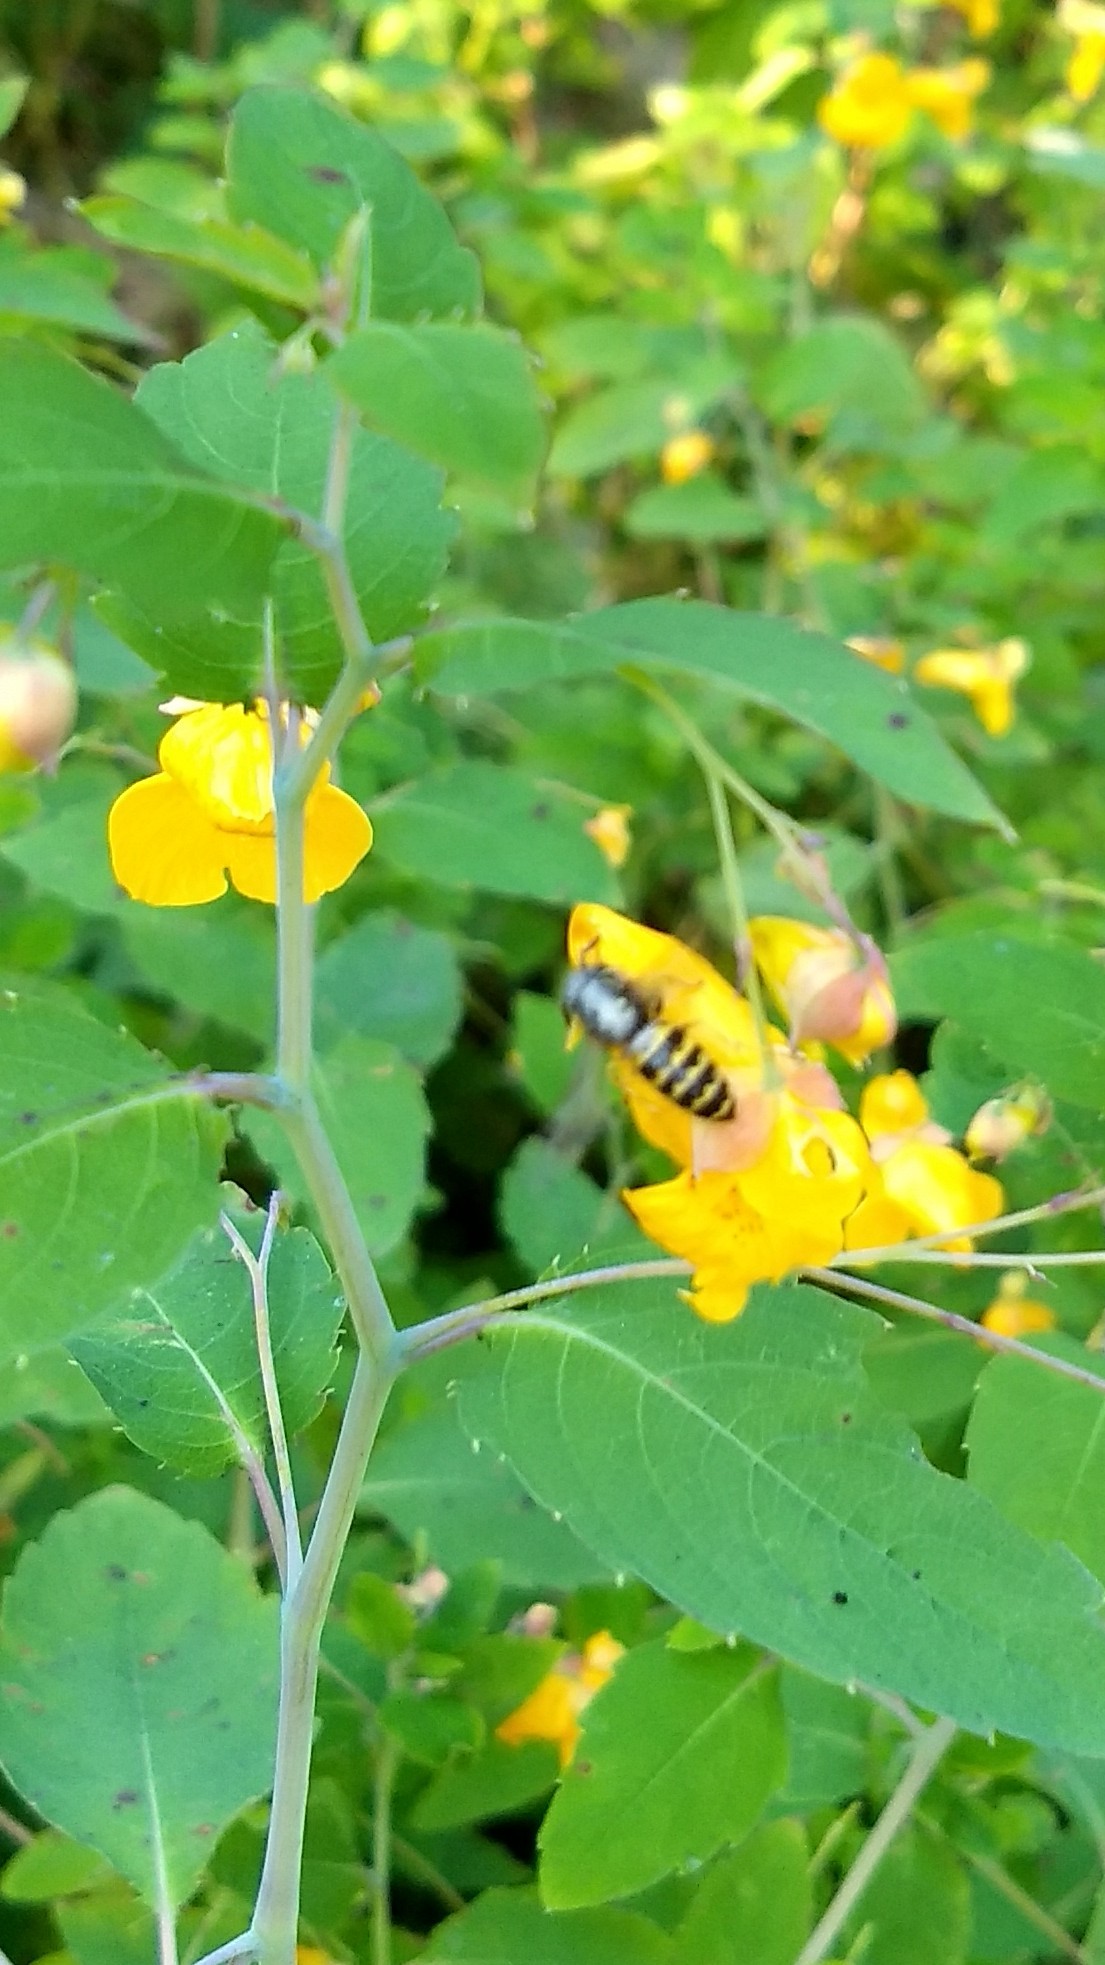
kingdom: Animalia
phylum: Arthropoda
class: Insecta
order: Hymenoptera
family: Vespidae
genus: Vespula
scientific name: Vespula
